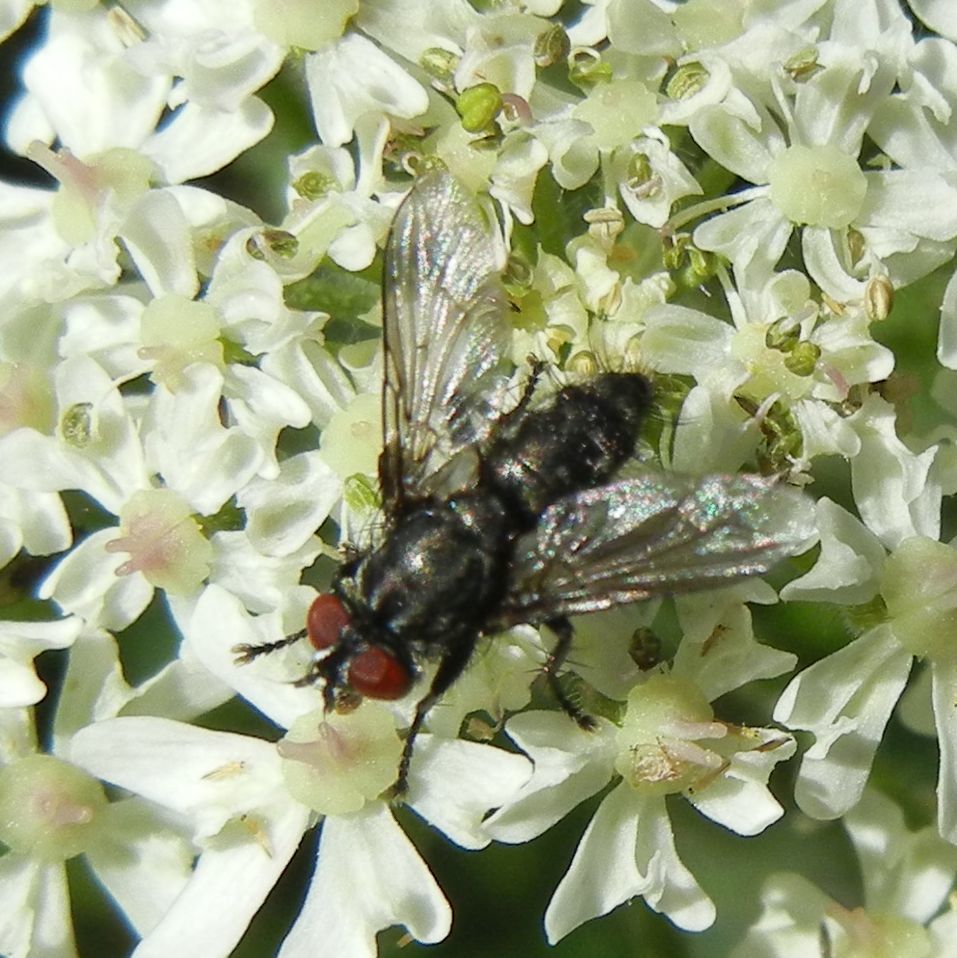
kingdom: Animalia
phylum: Arthropoda
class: Insecta
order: Diptera
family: Sarcophagidae
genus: Heteronychia
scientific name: Heteronychia
